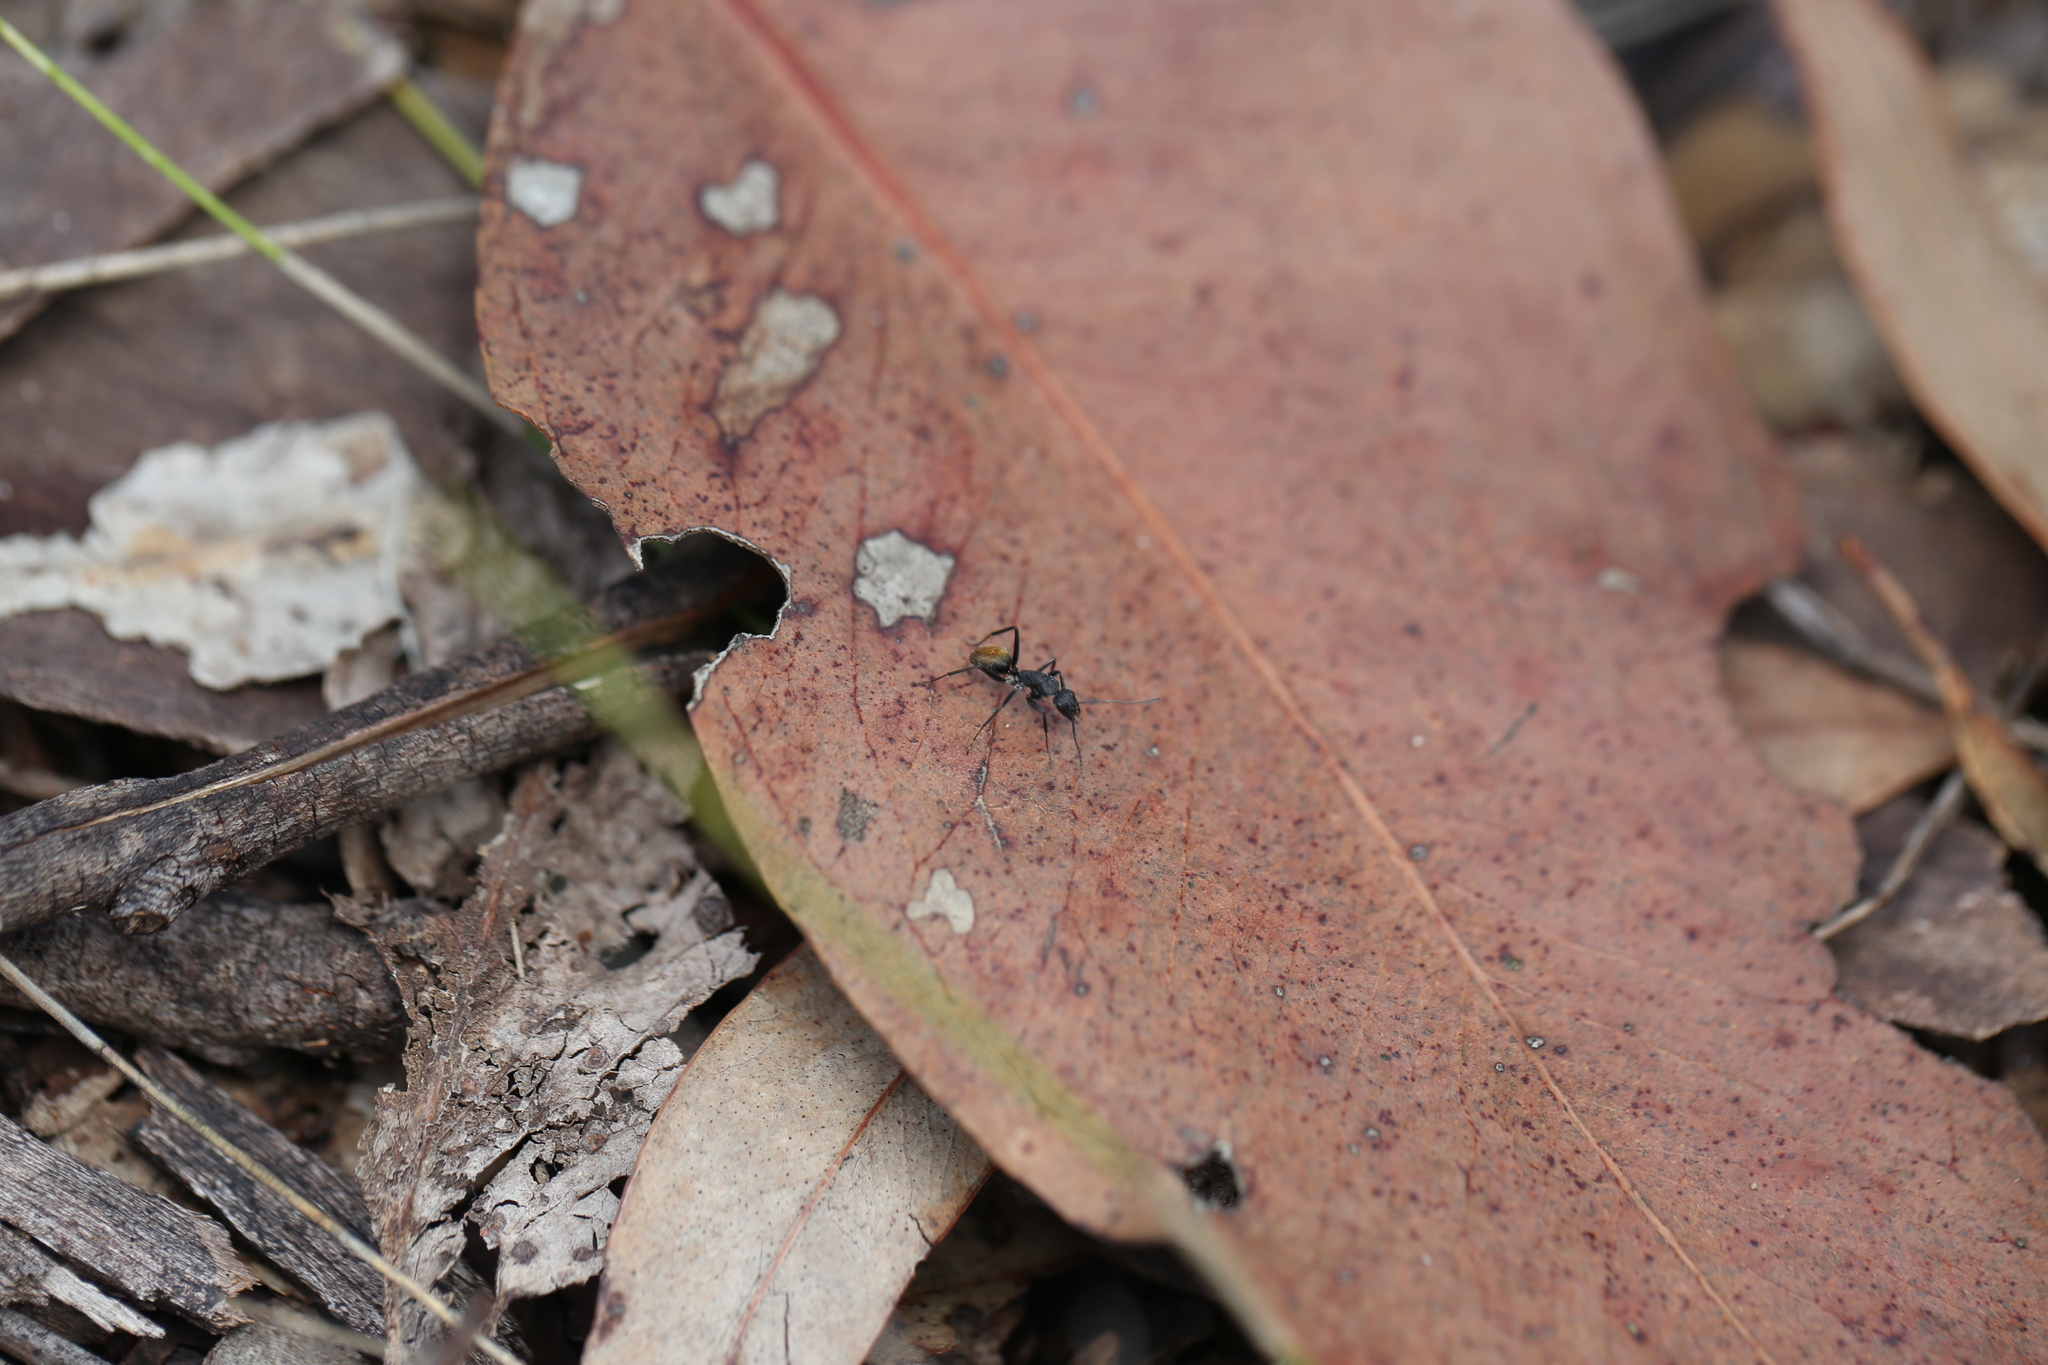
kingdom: Animalia
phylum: Arthropoda
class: Insecta
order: Hymenoptera
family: Formicidae
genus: Camponotus
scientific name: Camponotus aeneopilosus
